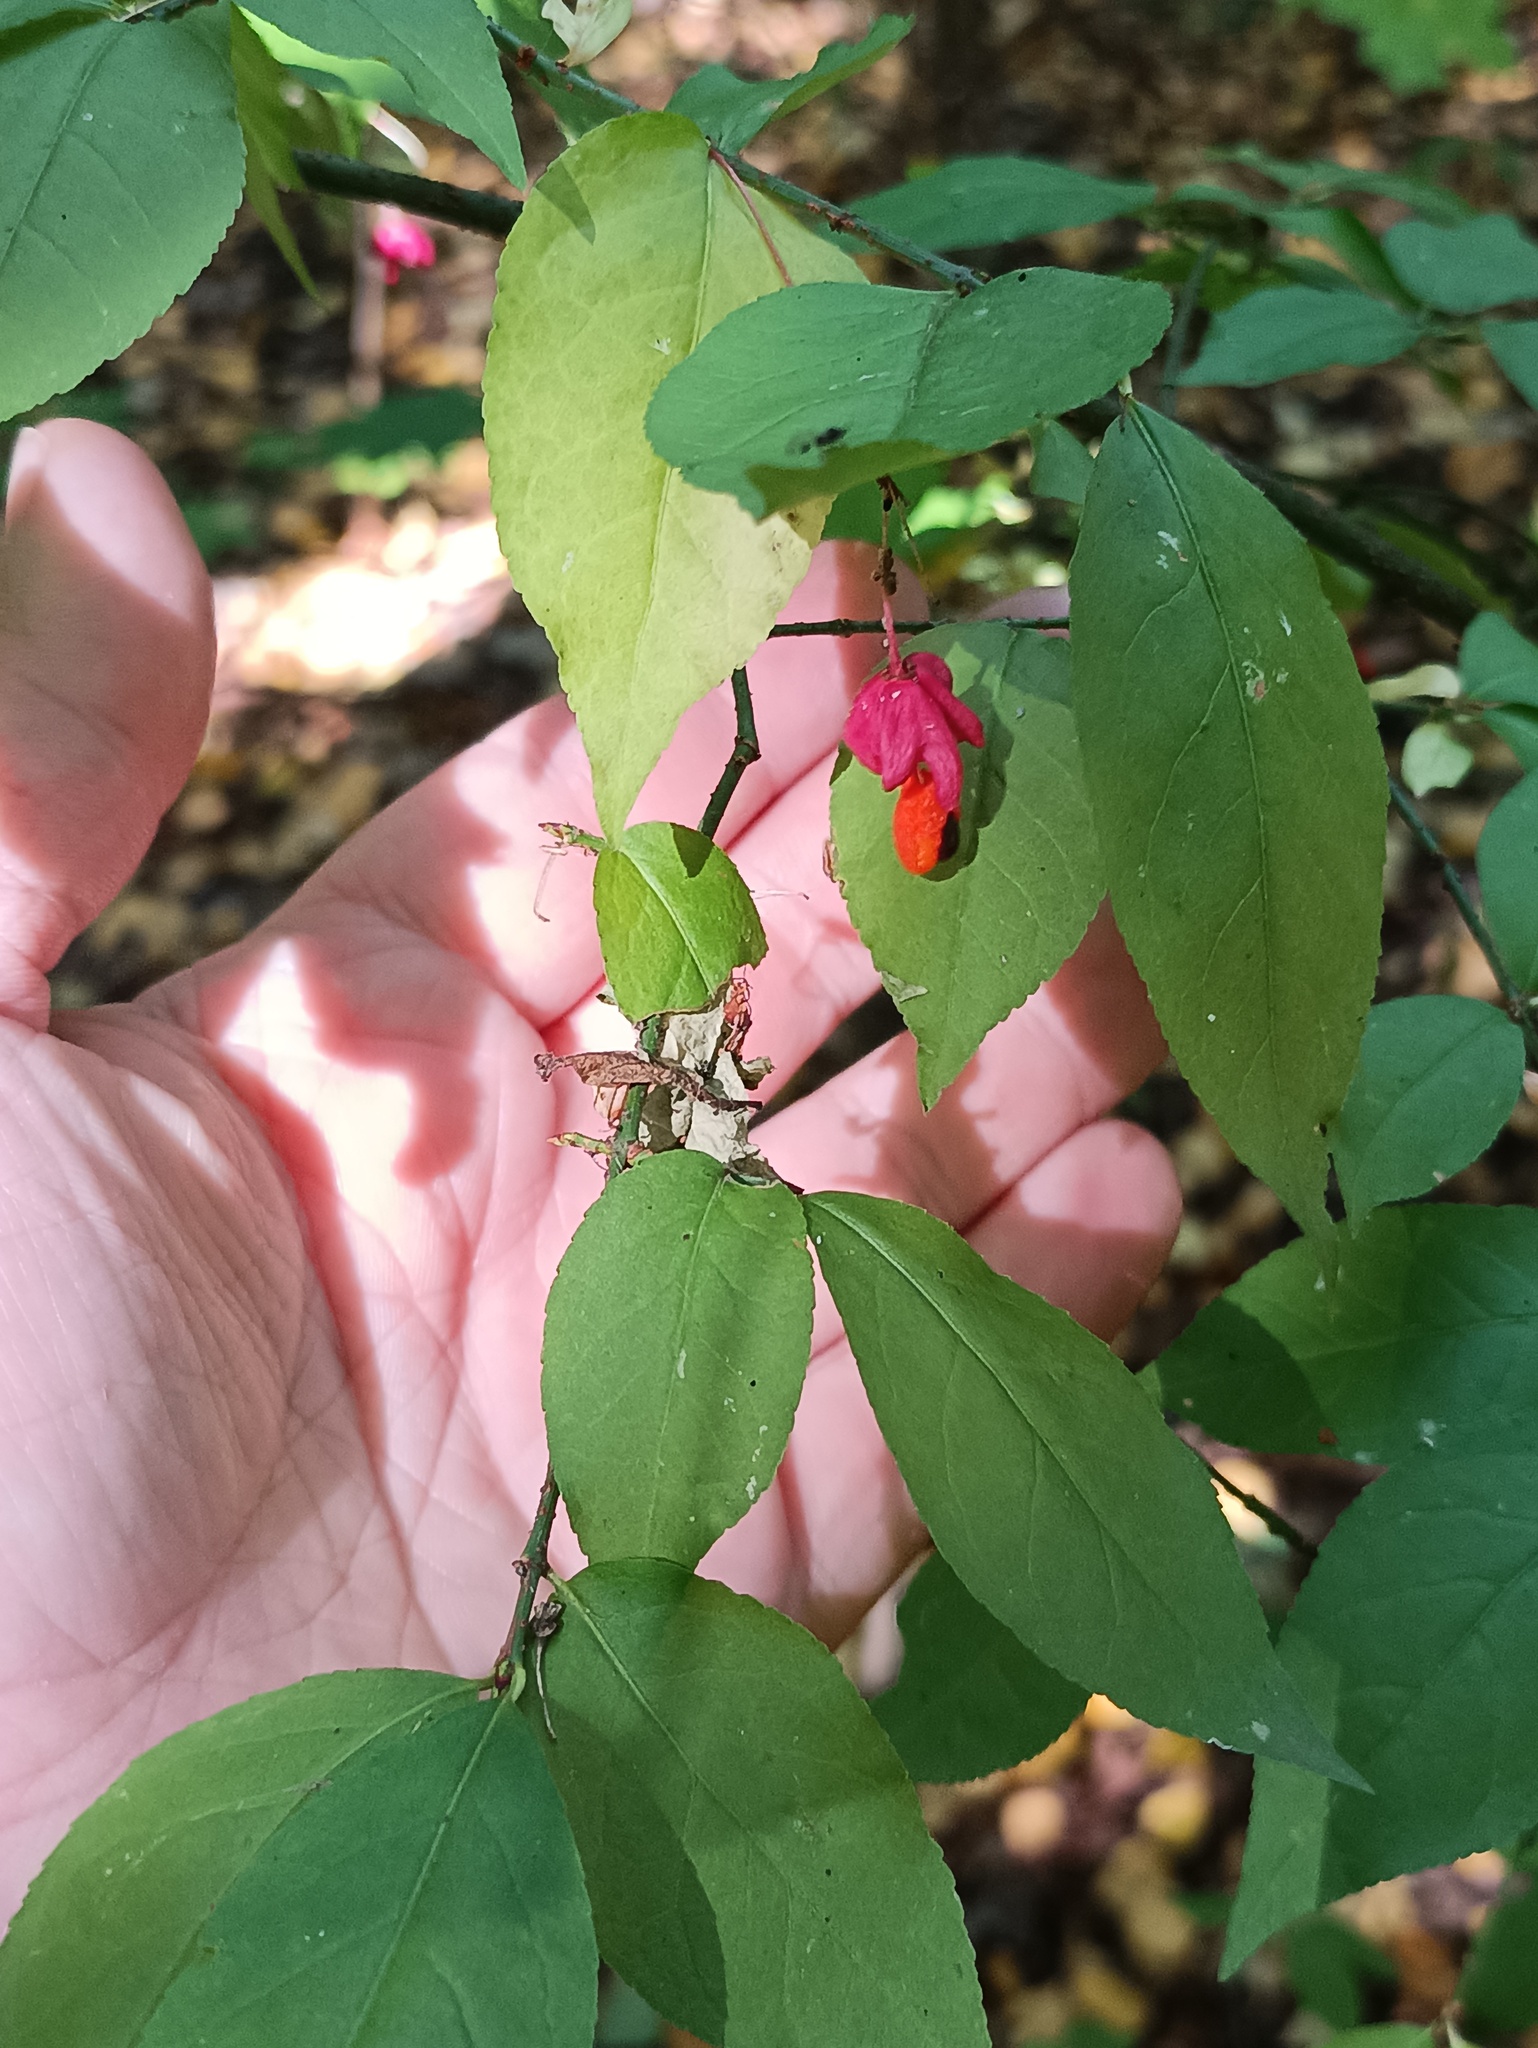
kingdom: Plantae
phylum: Tracheophyta
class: Magnoliopsida
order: Celastrales
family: Celastraceae
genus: Euonymus
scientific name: Euonymus verrucosus
